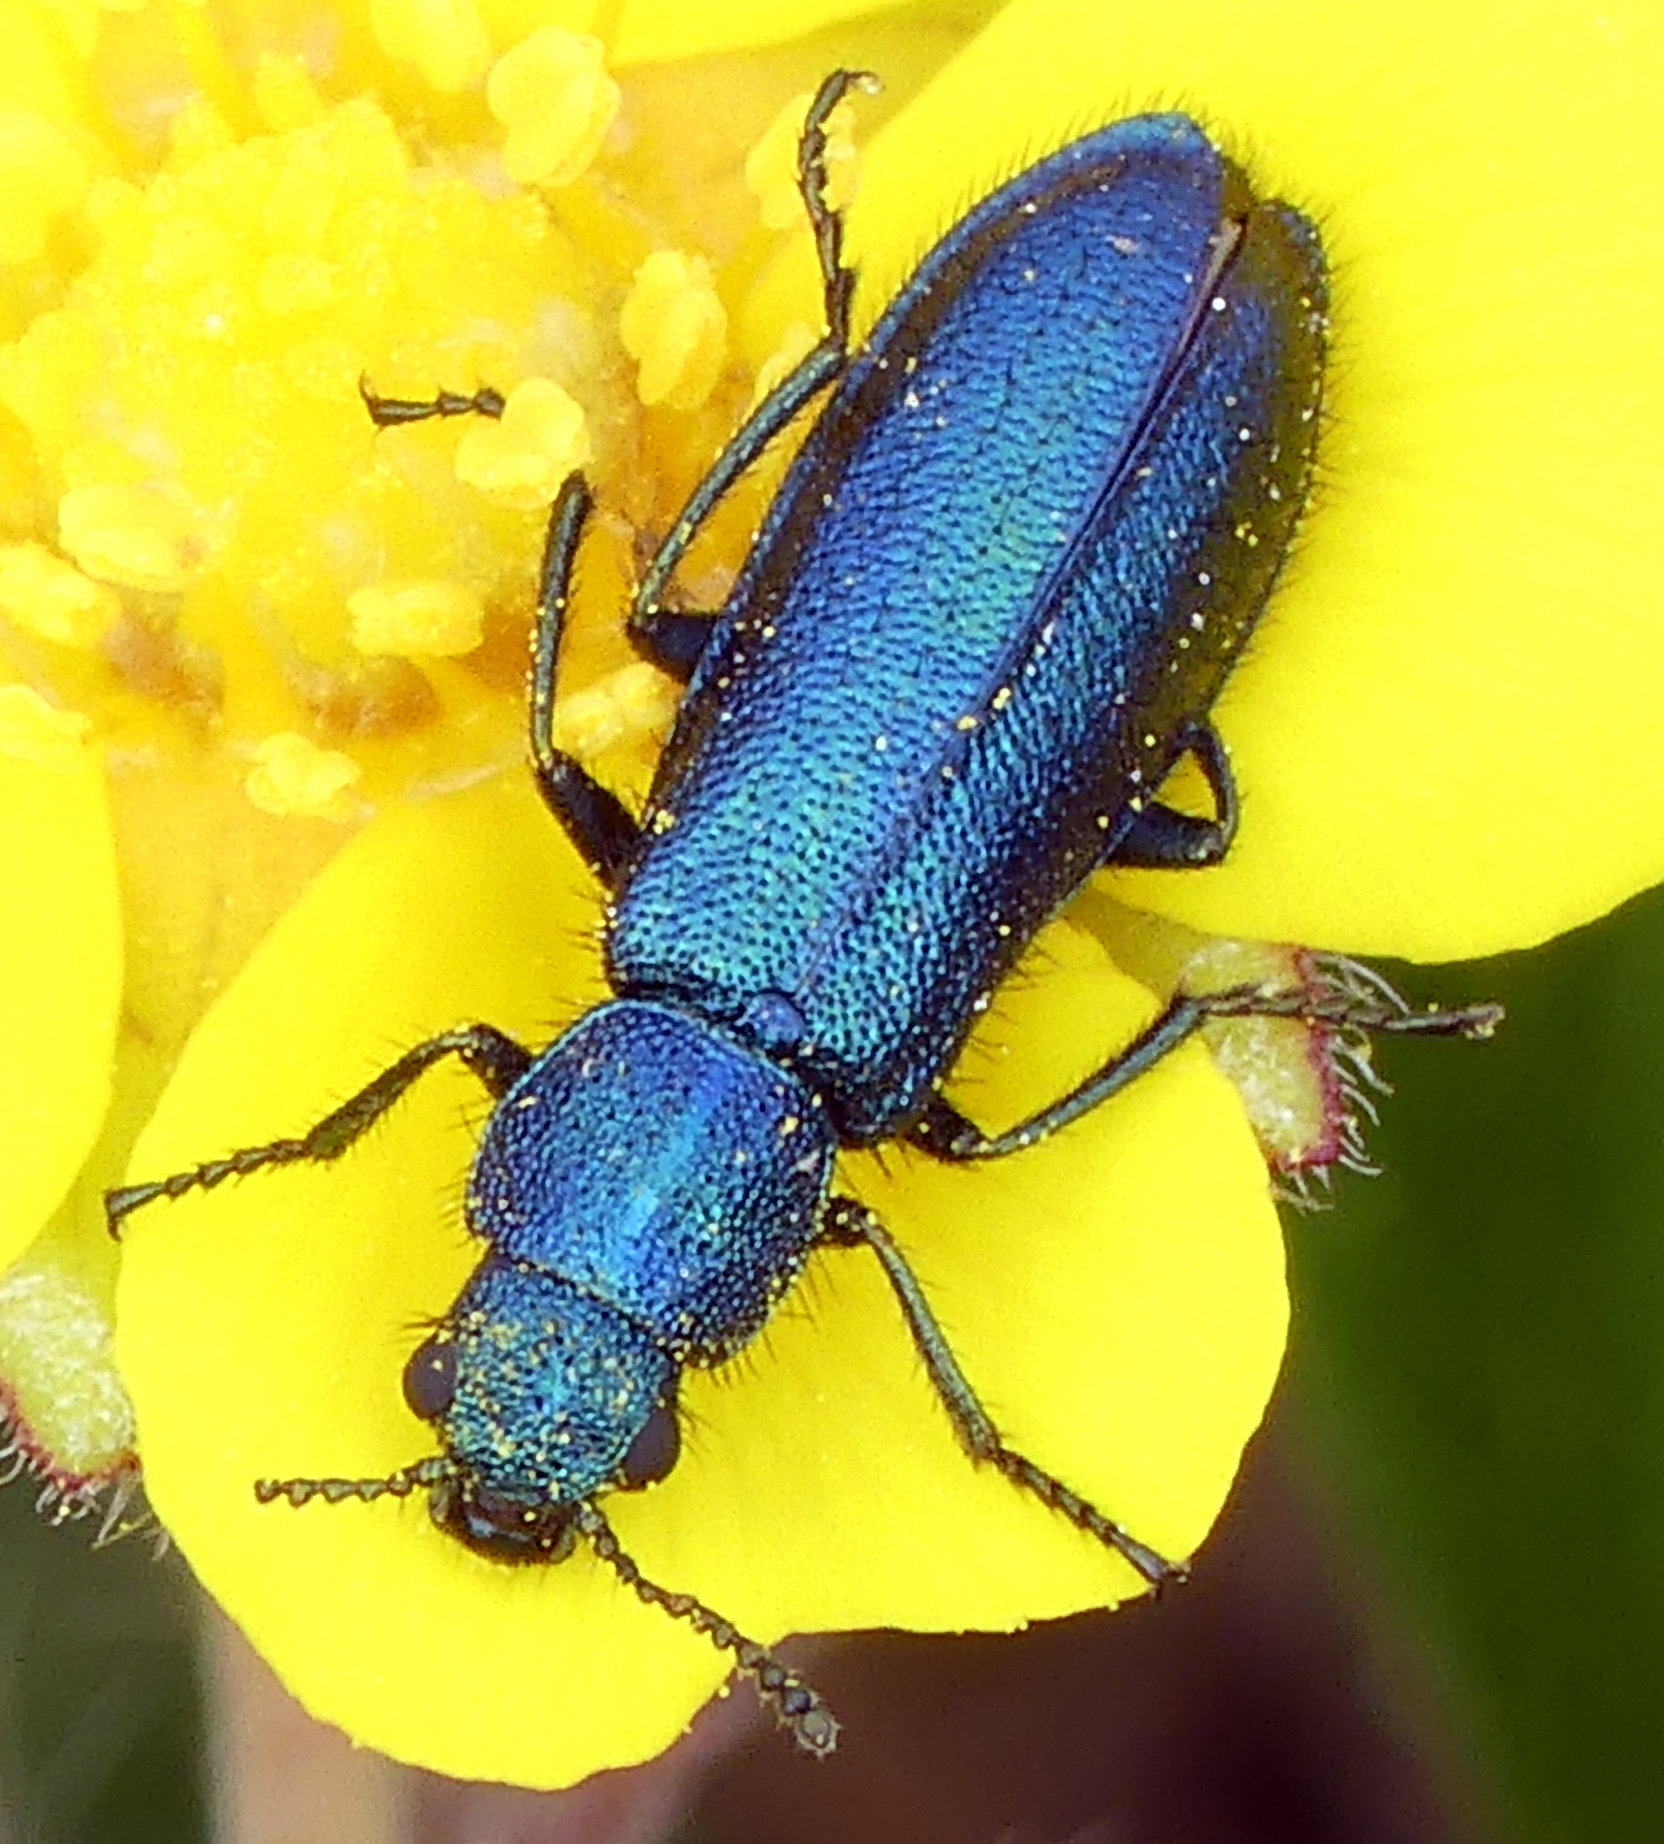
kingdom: Animalia
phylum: Arthropoda
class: Insecta
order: Coleoptera
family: Dasytidae
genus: Psilothrix
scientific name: Psilothrix viridicoerulea
